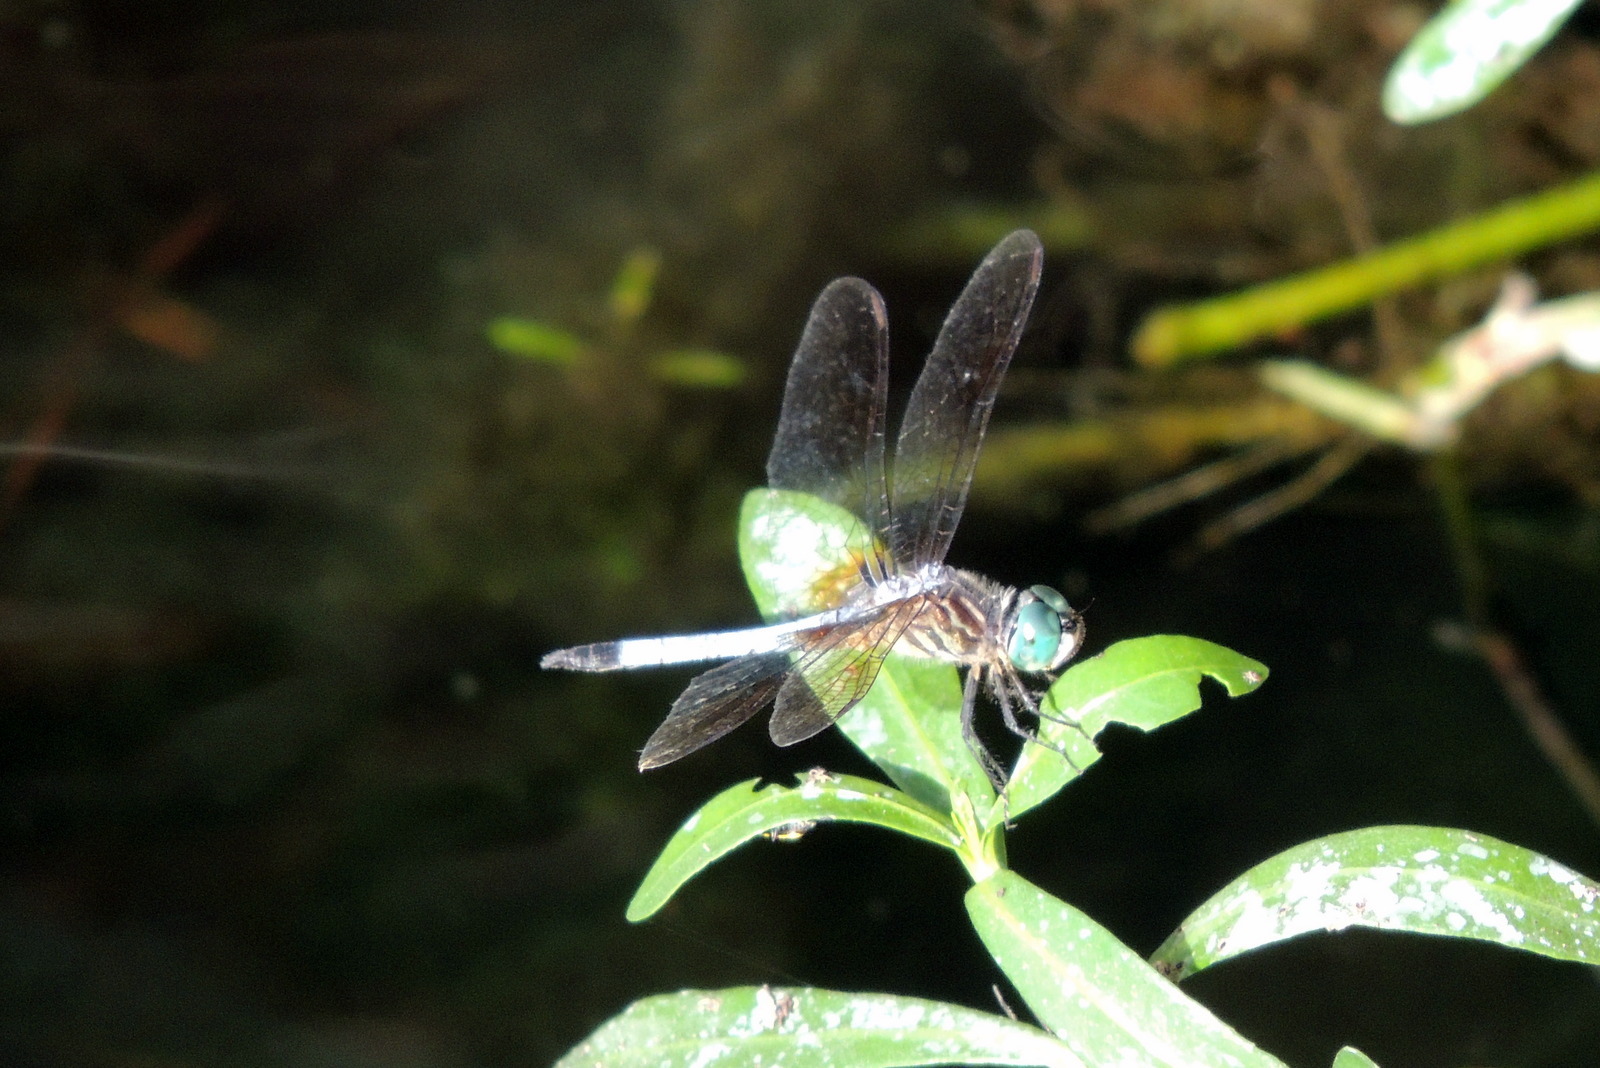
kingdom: Animalia
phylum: Arthropoda
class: Insecta
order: Odonata
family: Libellulidae
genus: Pachydiplax
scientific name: Pachydiplax longipennis
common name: Blue dasher
